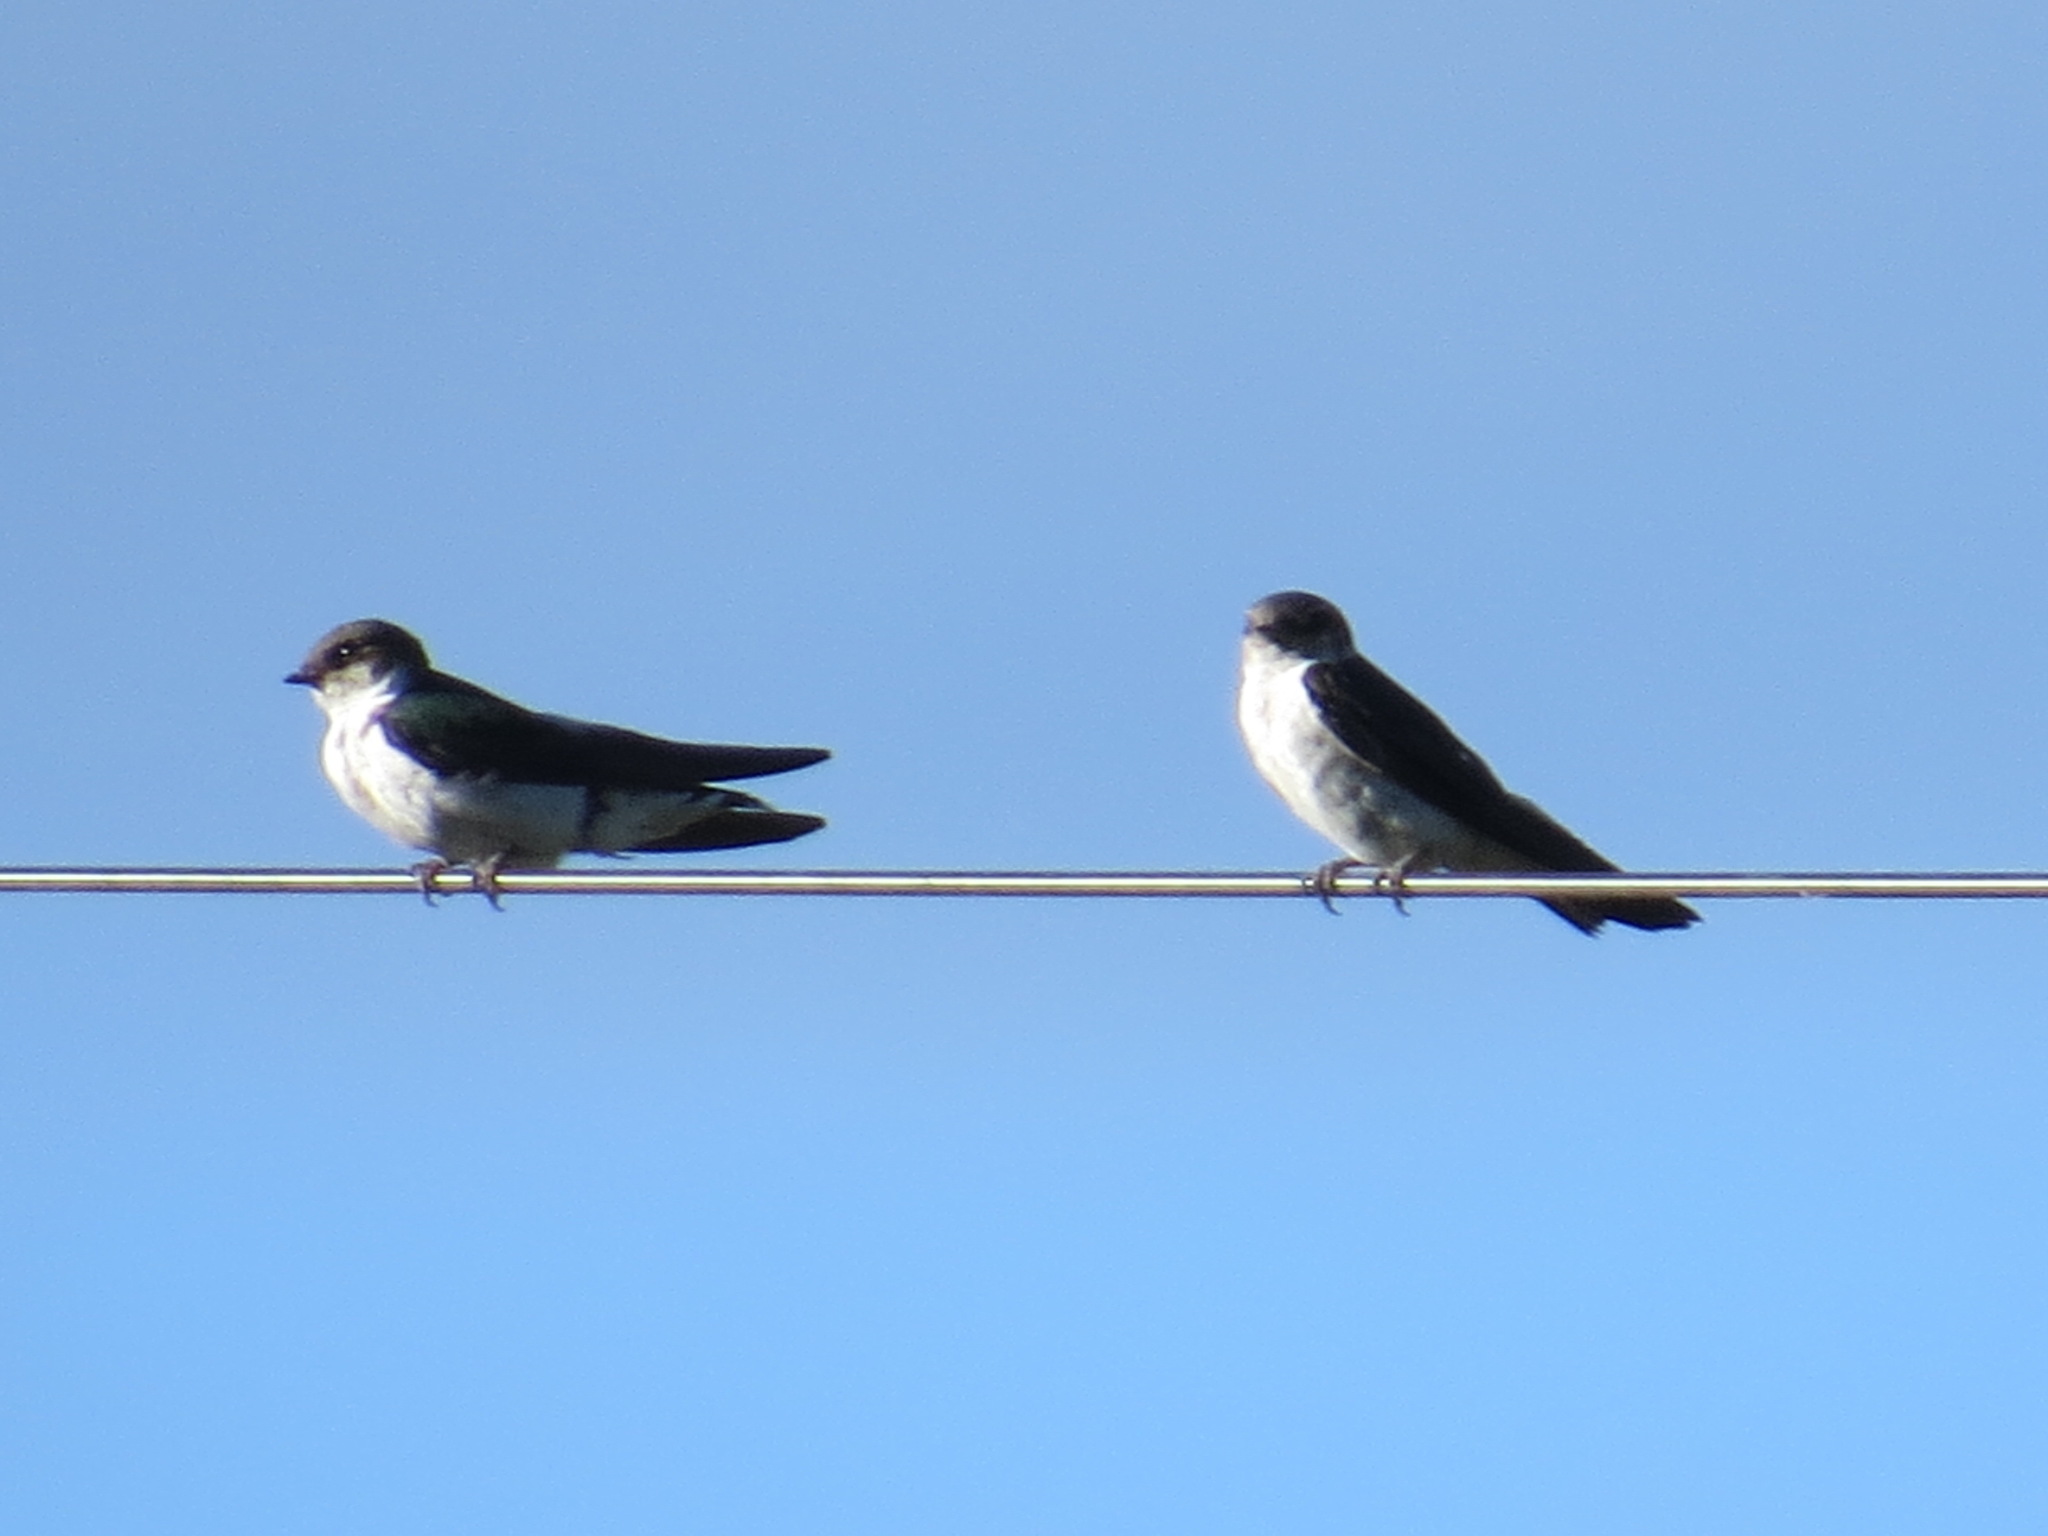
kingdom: Animalia
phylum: Chordata
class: Aves
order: Passeriformes
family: Hirundinidae
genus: Tachycineta
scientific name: Tachycineta thalassina
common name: Violet-green swallow
